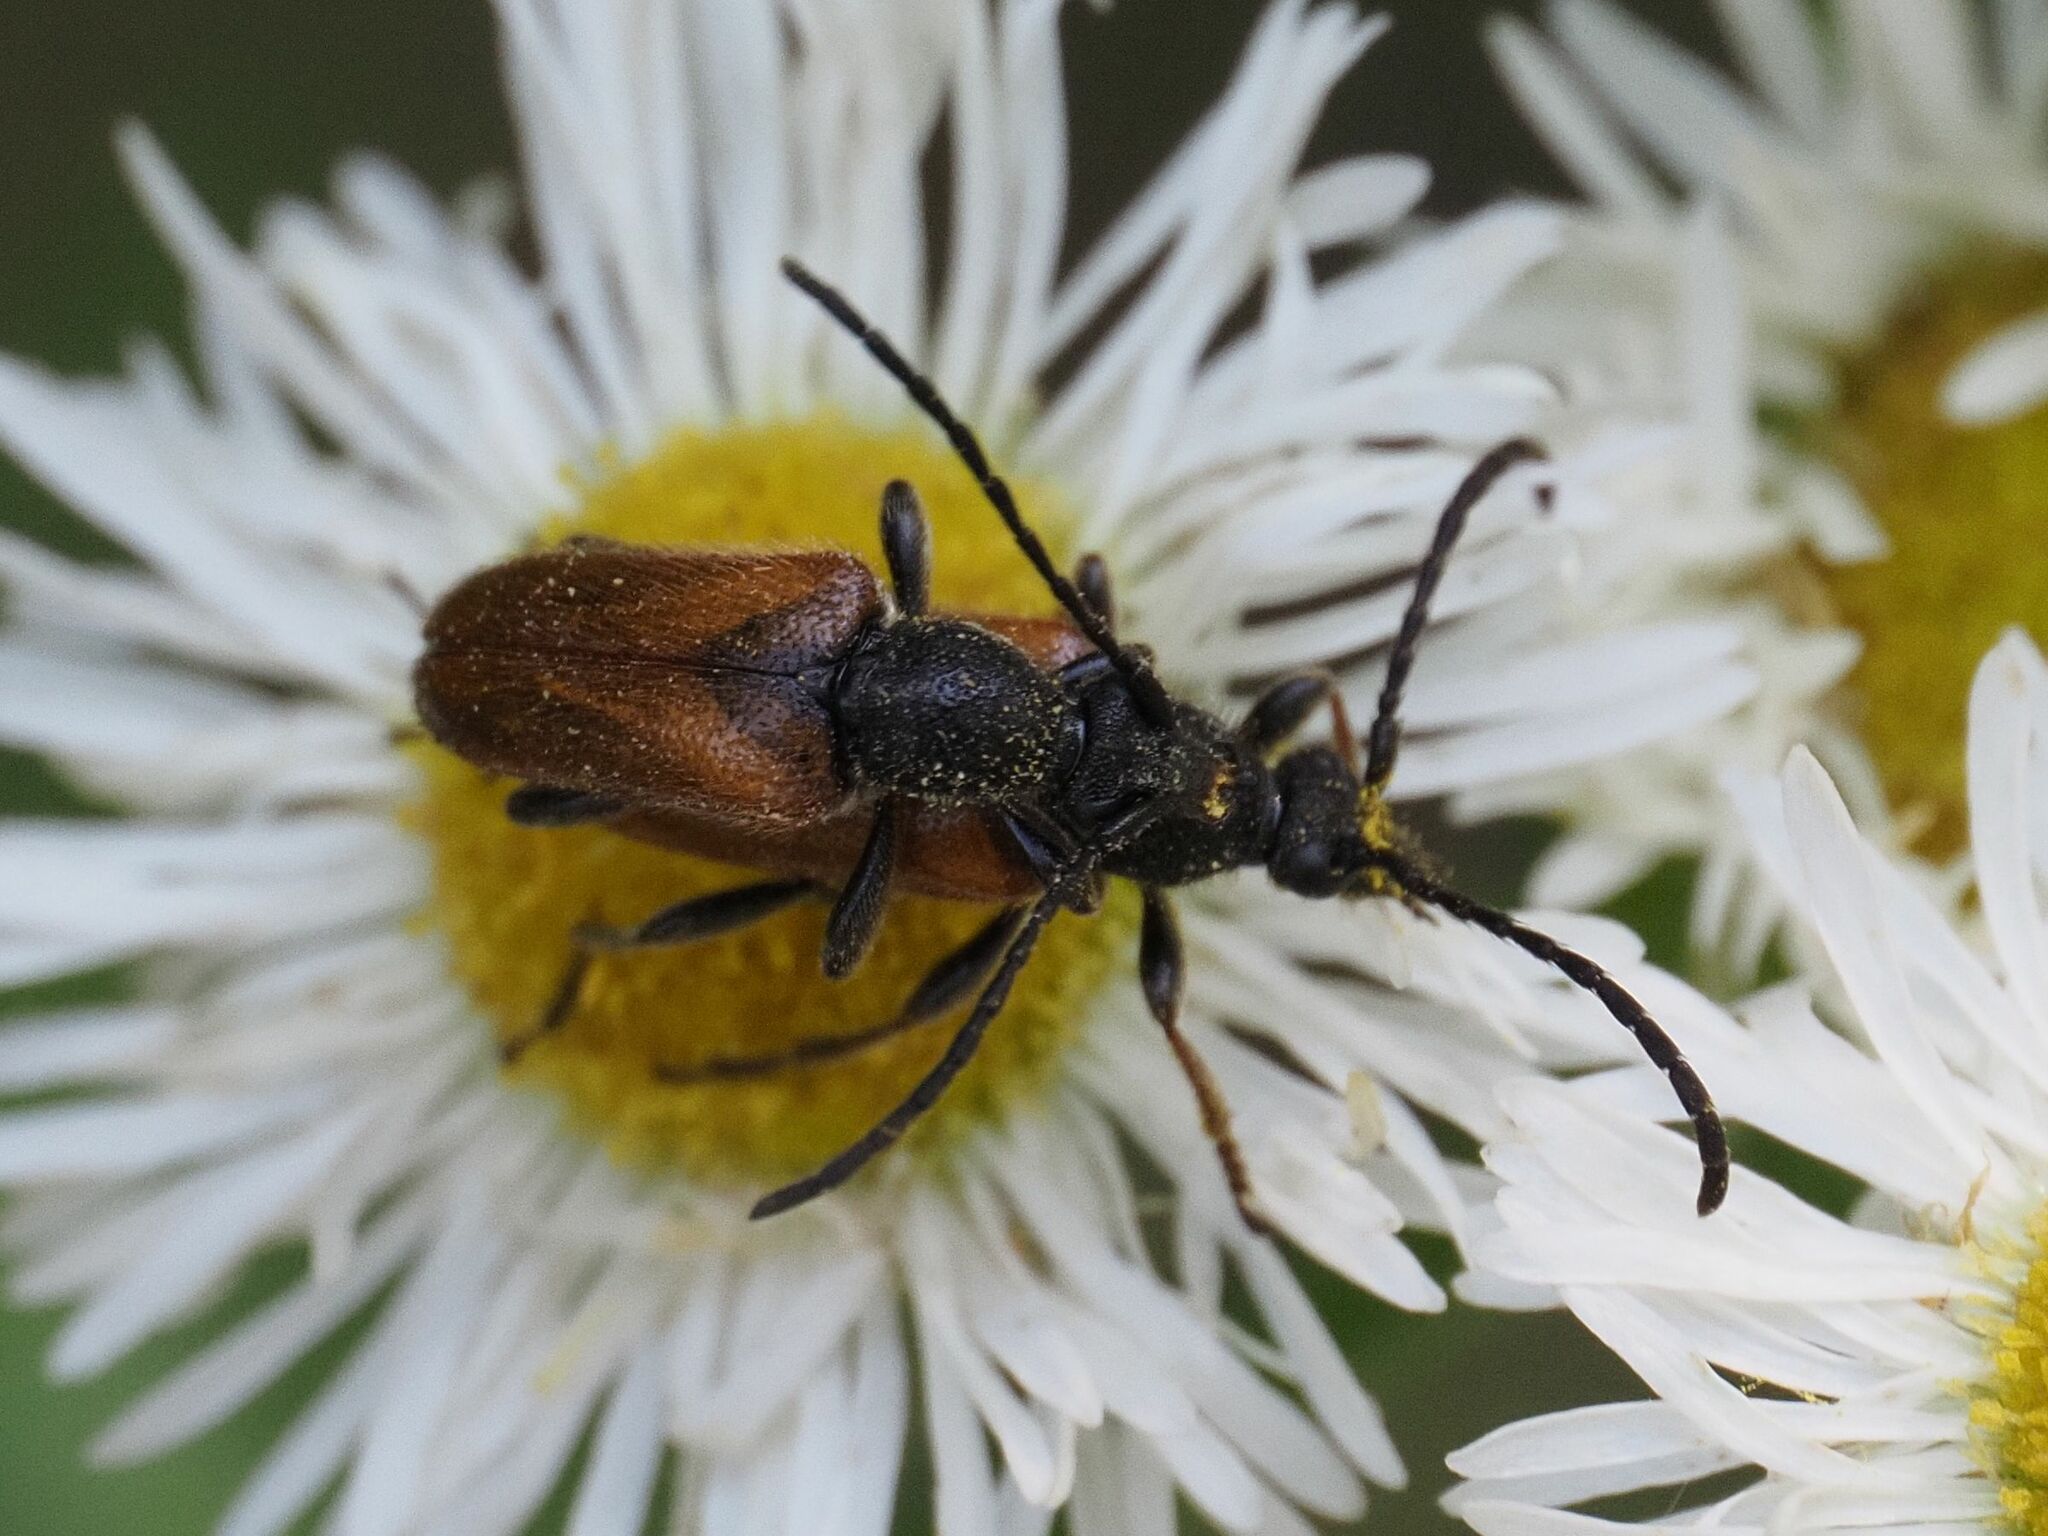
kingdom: Animalia
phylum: Arthropoda
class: Insecta
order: Coleoptera
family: Cerambycidae
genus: Pseudovadonia
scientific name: Pseudovadonia livida
